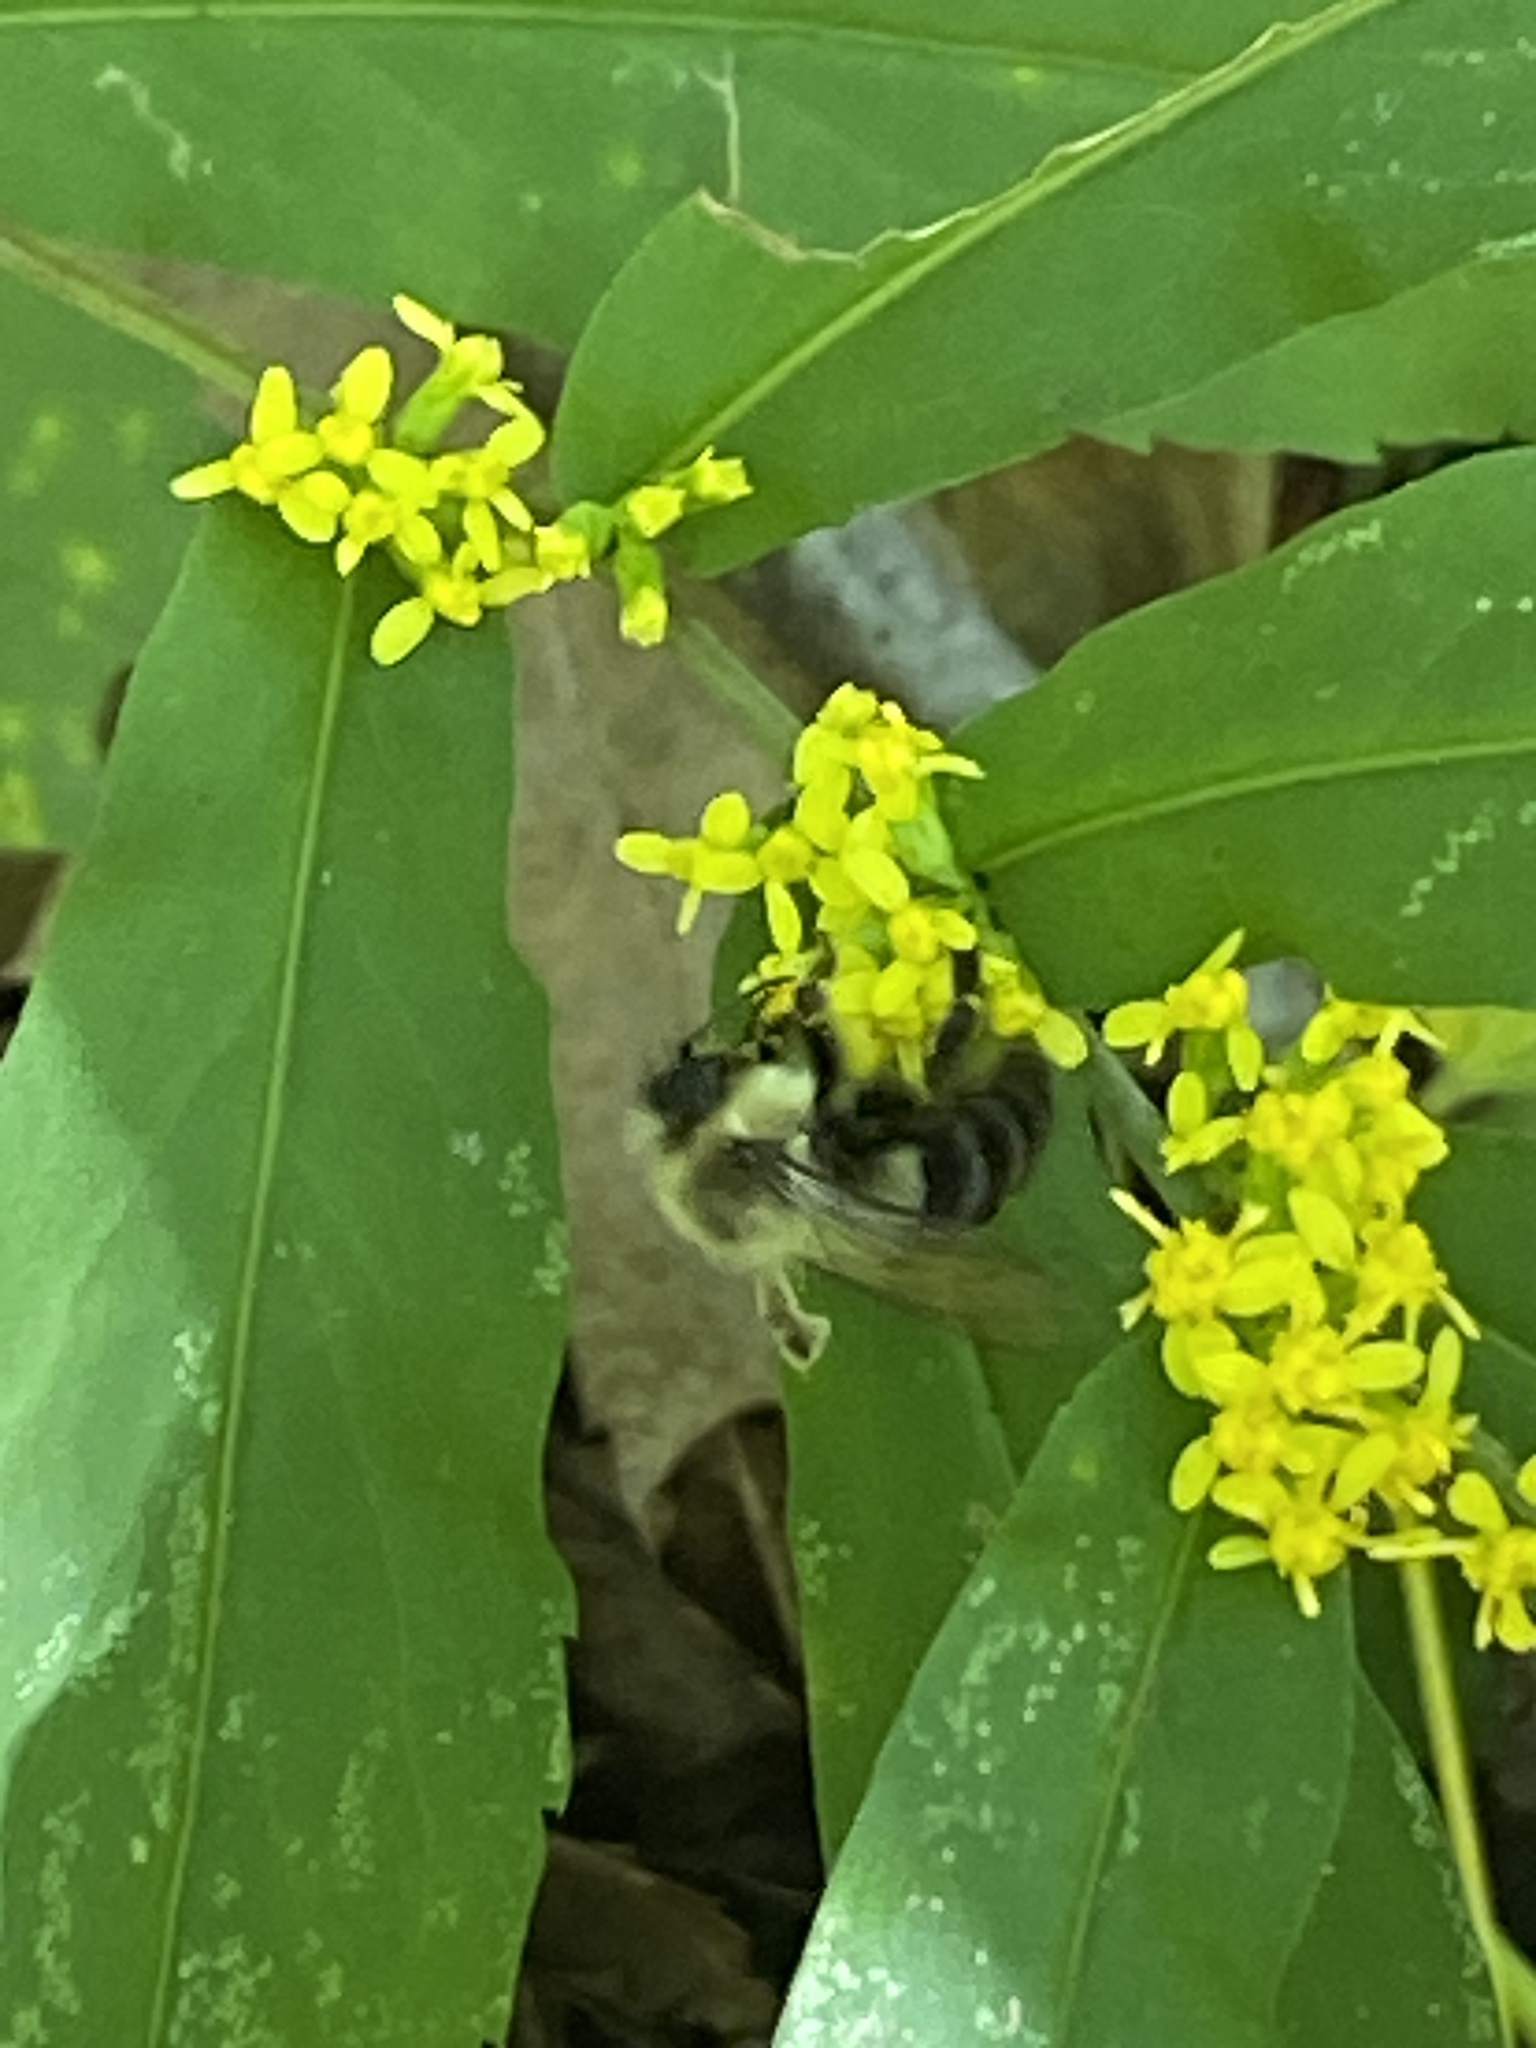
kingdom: Animalia
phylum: Arthropoda
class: Insecta
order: Hymenoptera
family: Apidae
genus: Bombus
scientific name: Bombus impatiens
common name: Common eastern bumble bee
